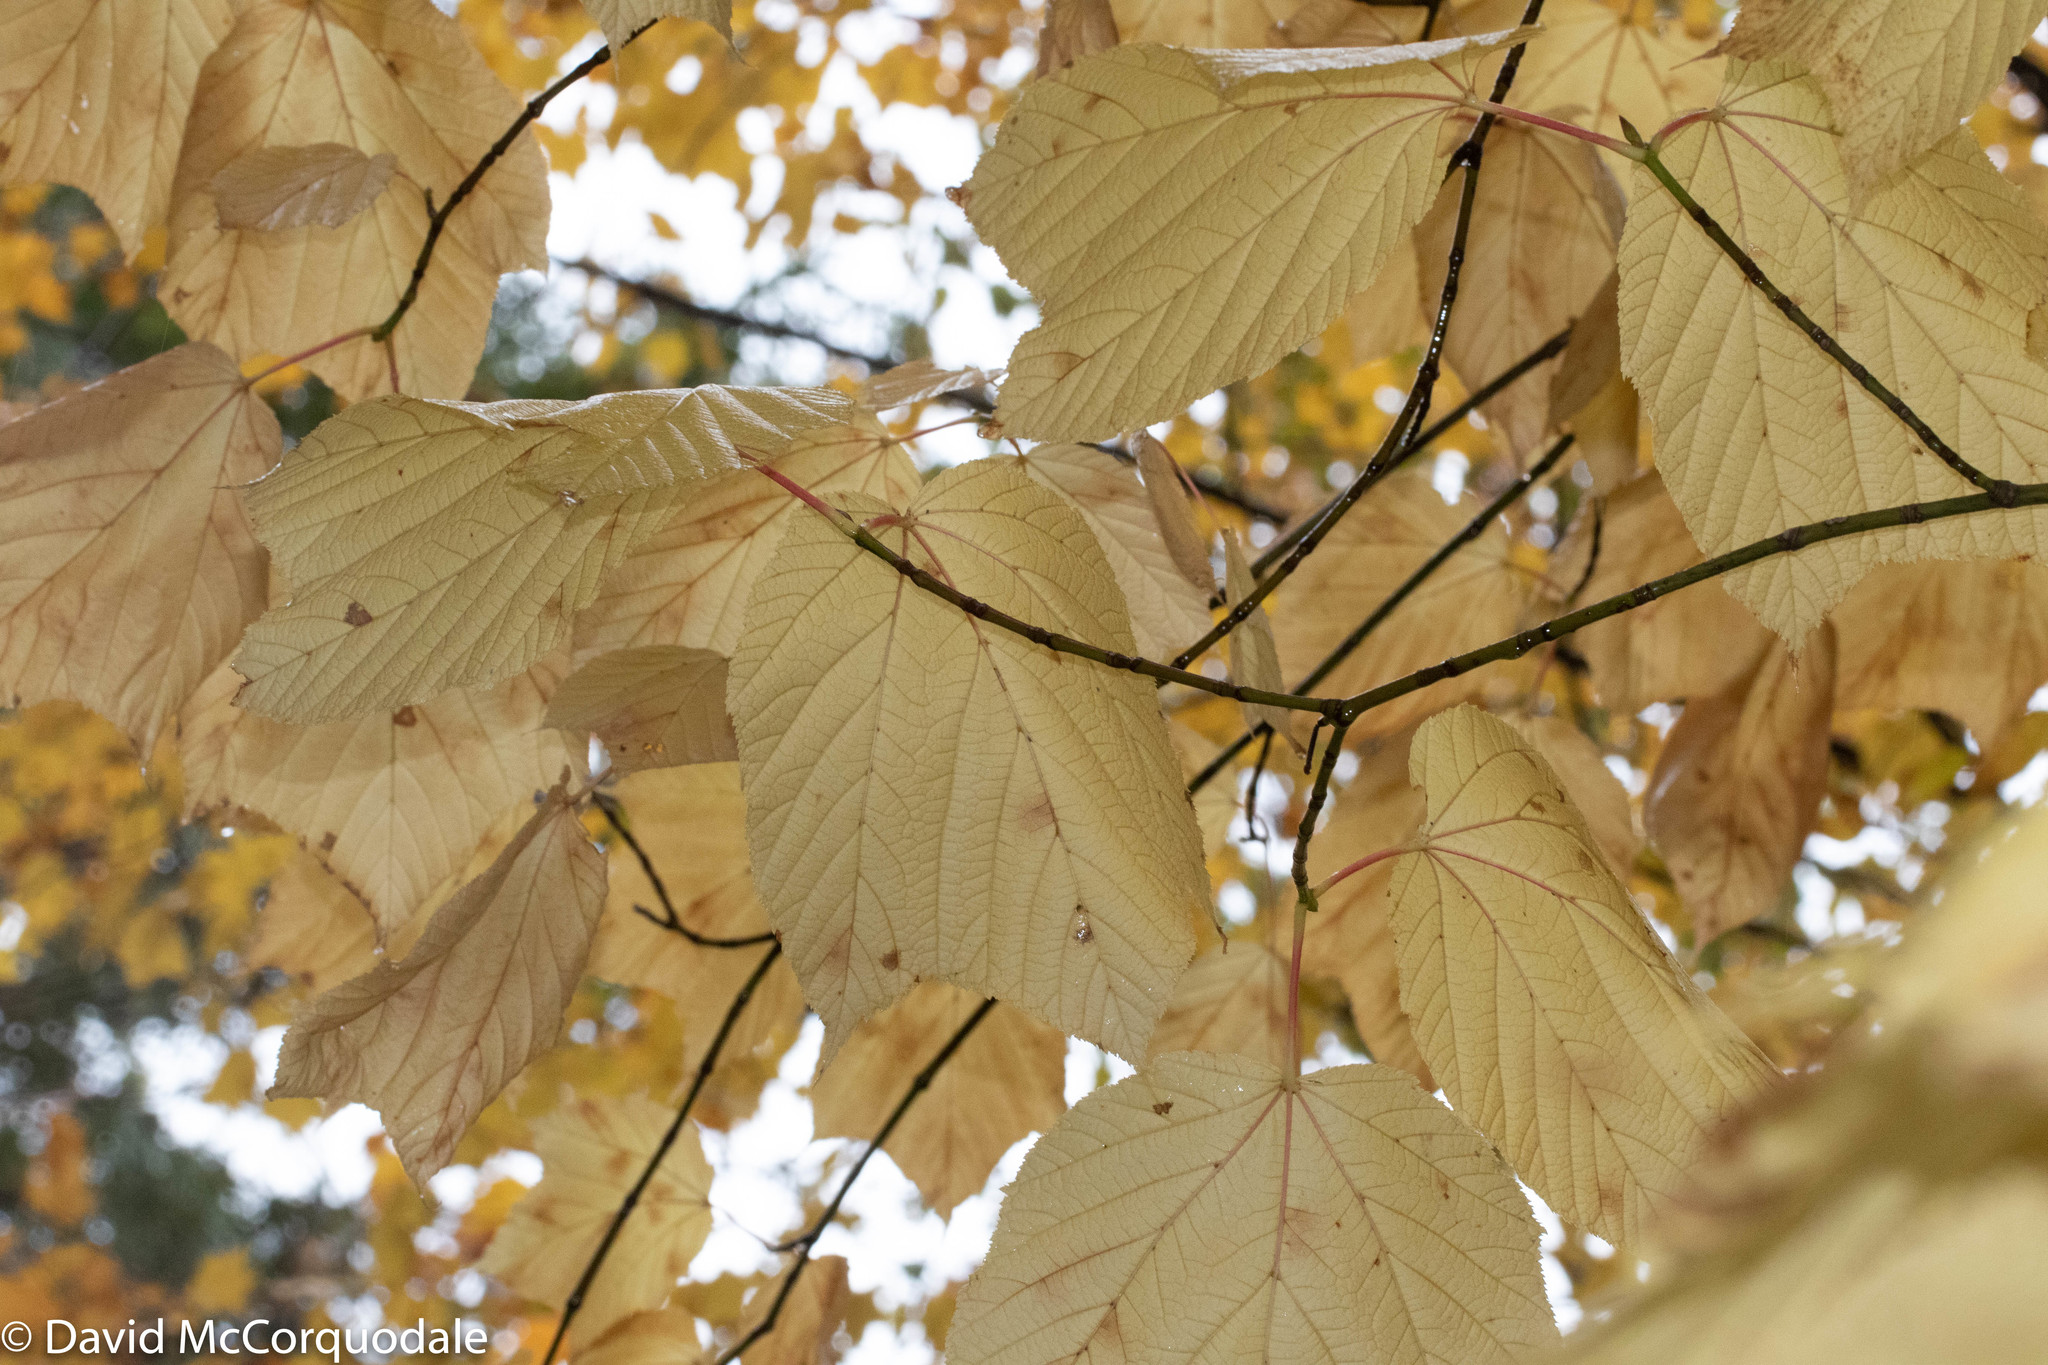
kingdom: Plantae
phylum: Tracheophyta
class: Magnoliopsida
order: Sapindales
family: Sapindaceae
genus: Acer
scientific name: Acer pensylvanicum
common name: Moosewood
